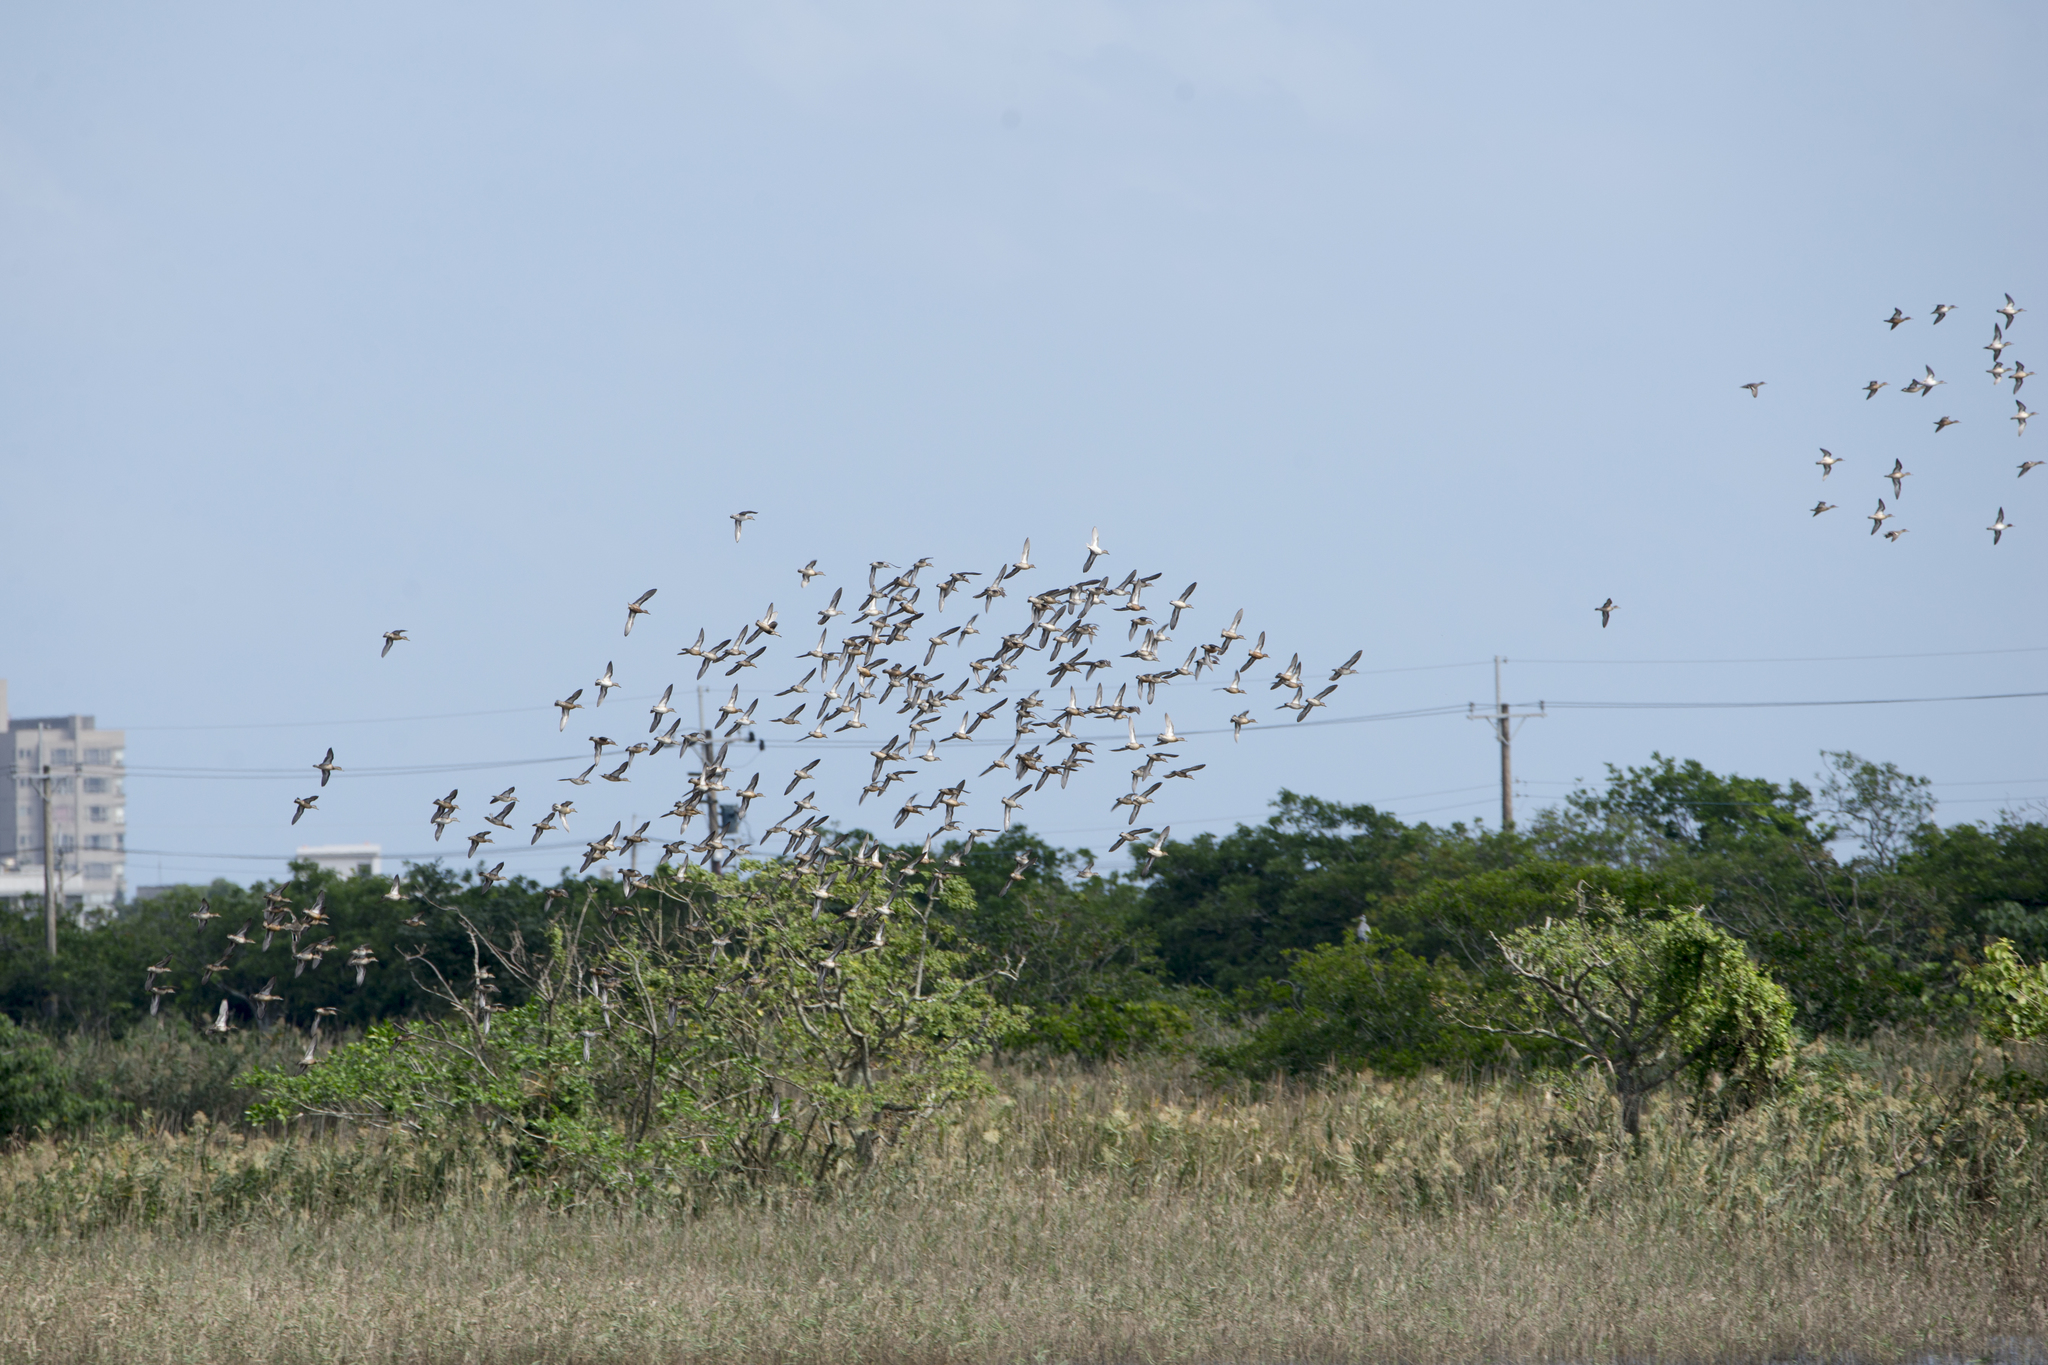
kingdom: Animalia
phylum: Chordata
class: Aves
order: Anseriformes
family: Anatidae
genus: Anas
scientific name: Anas crecca
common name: Eurasian teal
